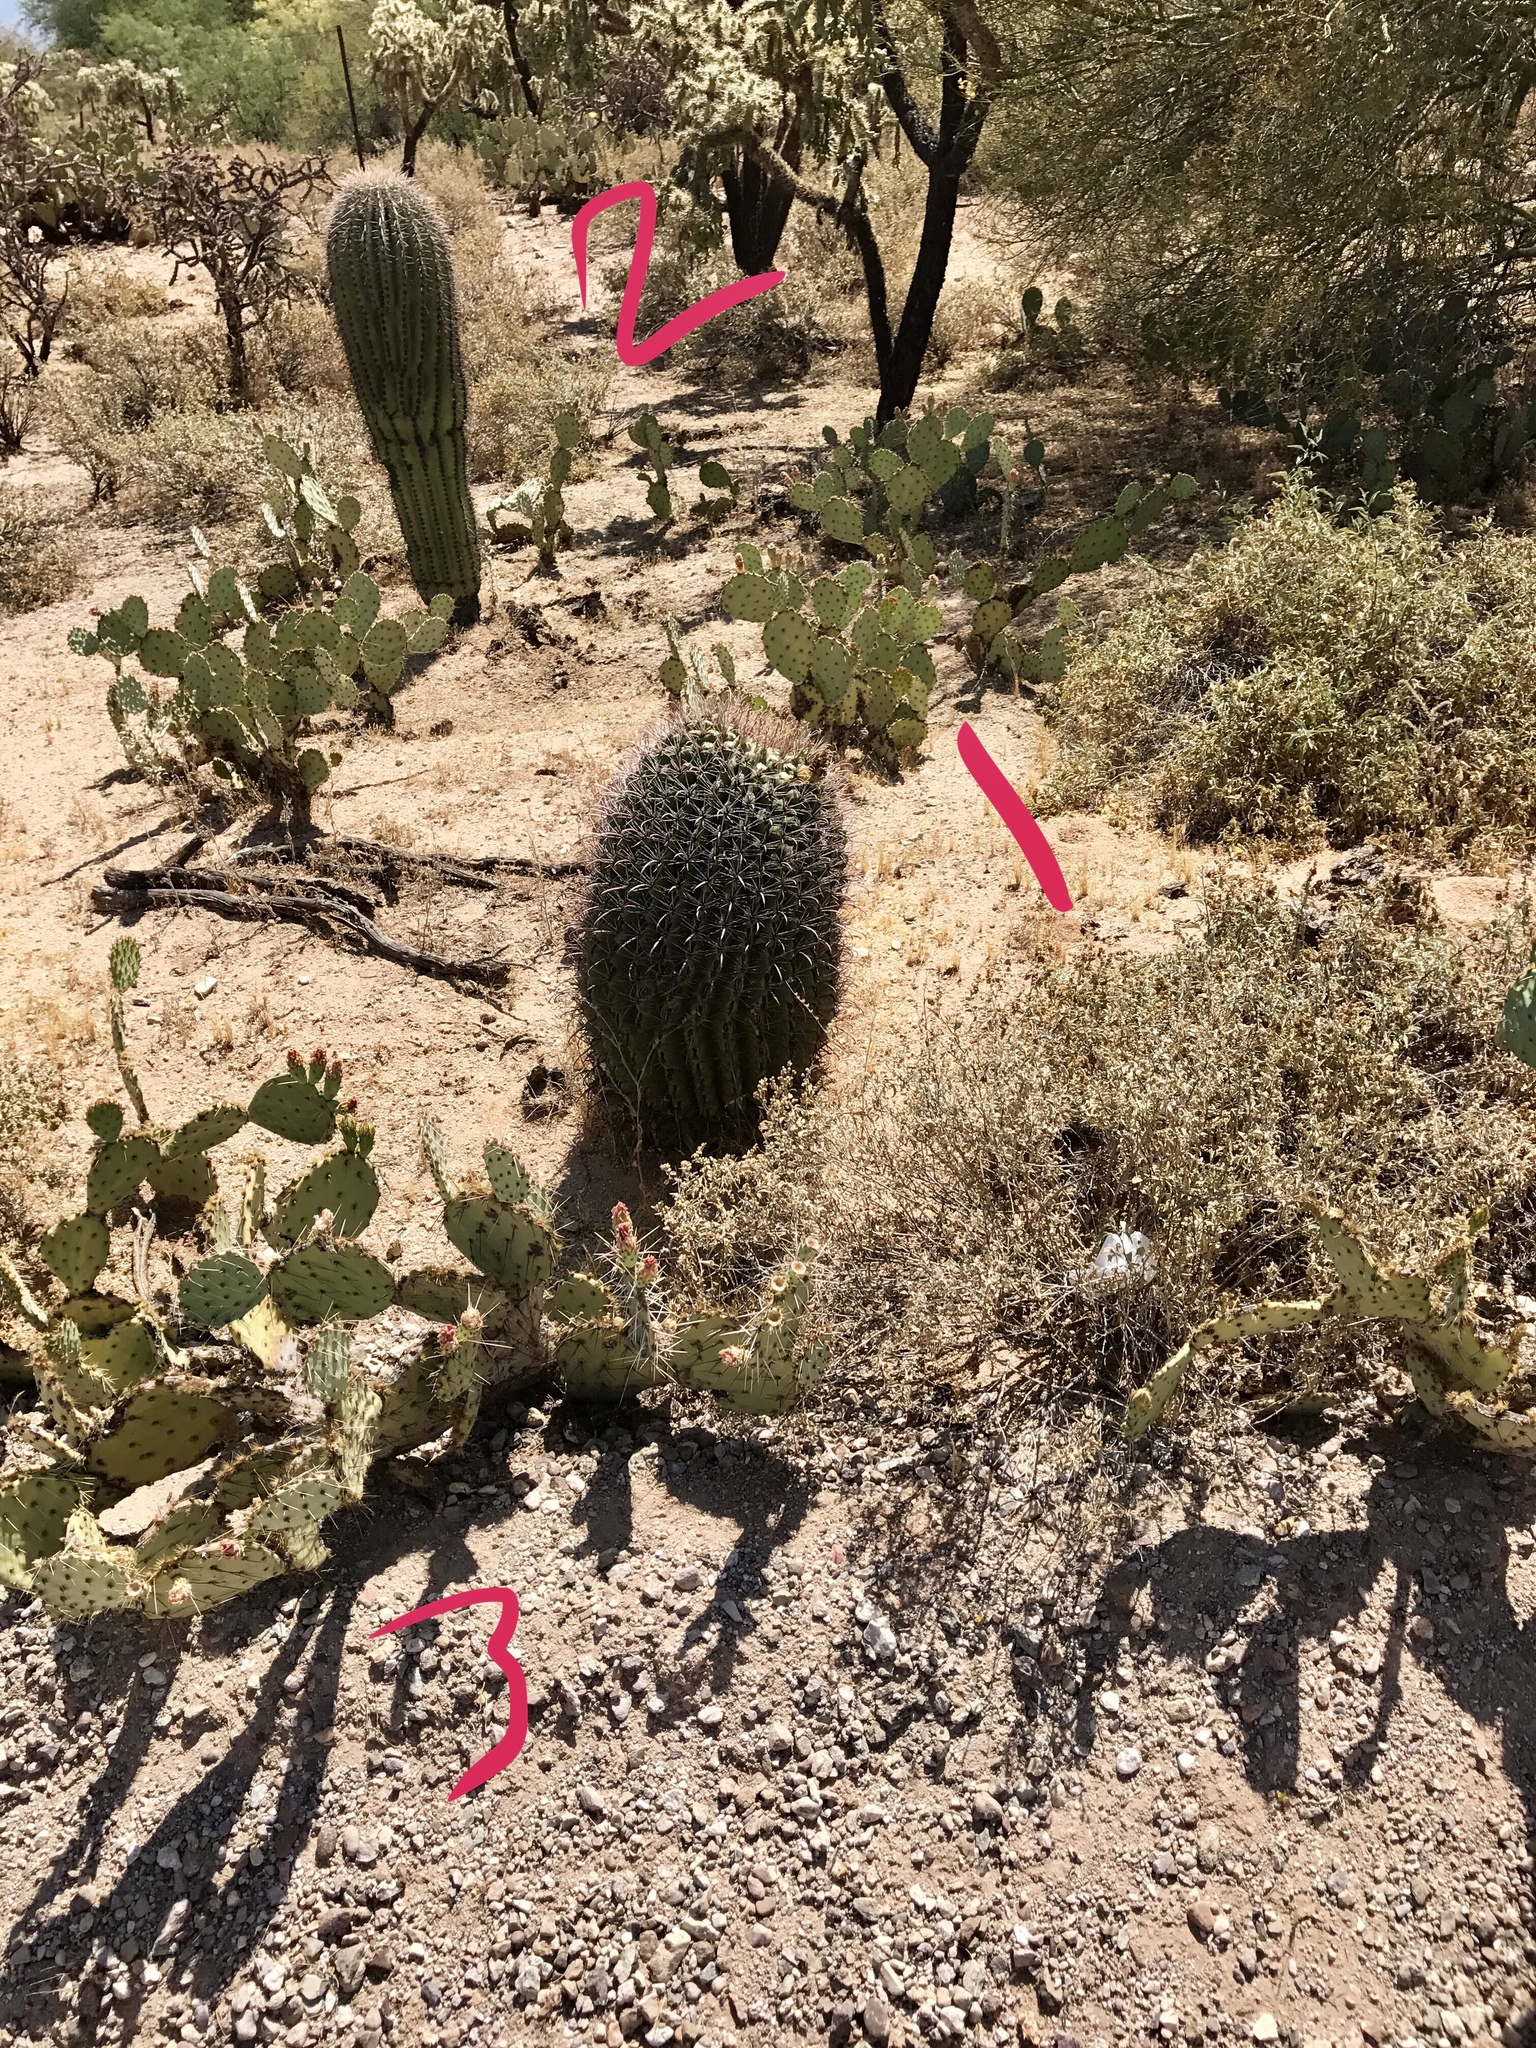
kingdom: Plantae
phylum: Tracheophyta
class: Magnoliopsida
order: Caryophyllales
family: Cactaceae
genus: Ferocactus
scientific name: Ferocactus wislizeni
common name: Candy barrel cactus
